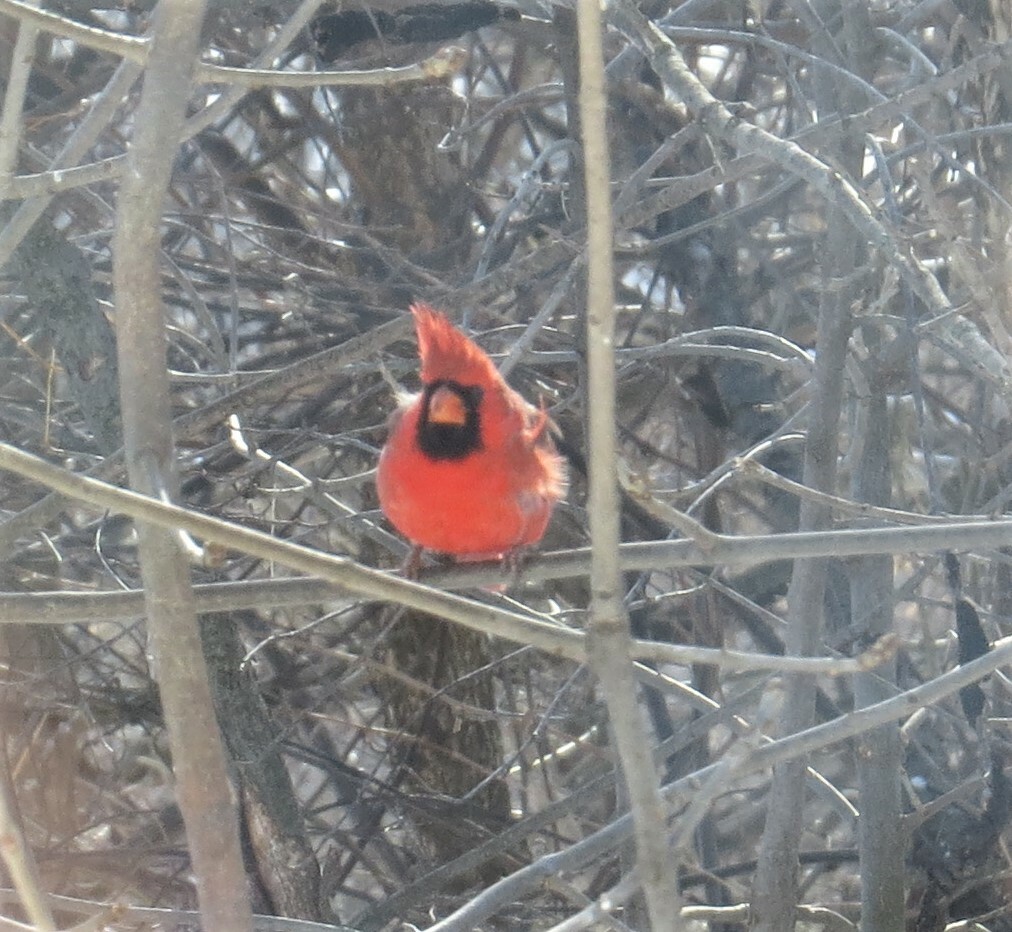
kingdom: Animalia
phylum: Chordata
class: Aves
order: Passeriformes
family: Cardinalidae
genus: Cardinalis
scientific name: Cardinalis cardinalis
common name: Northern cardinal
